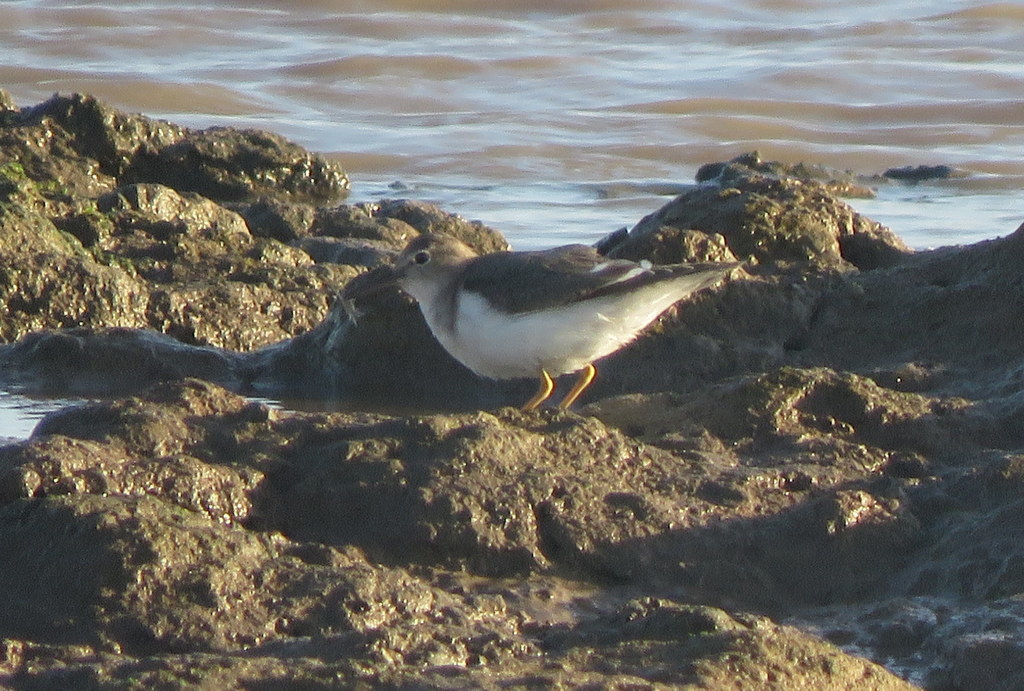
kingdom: Animalia
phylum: Chordata
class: Aves
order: Charadriiformes
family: Scolopacidae
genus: Actitis
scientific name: Actitis macularius
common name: Spotted sandpiper
